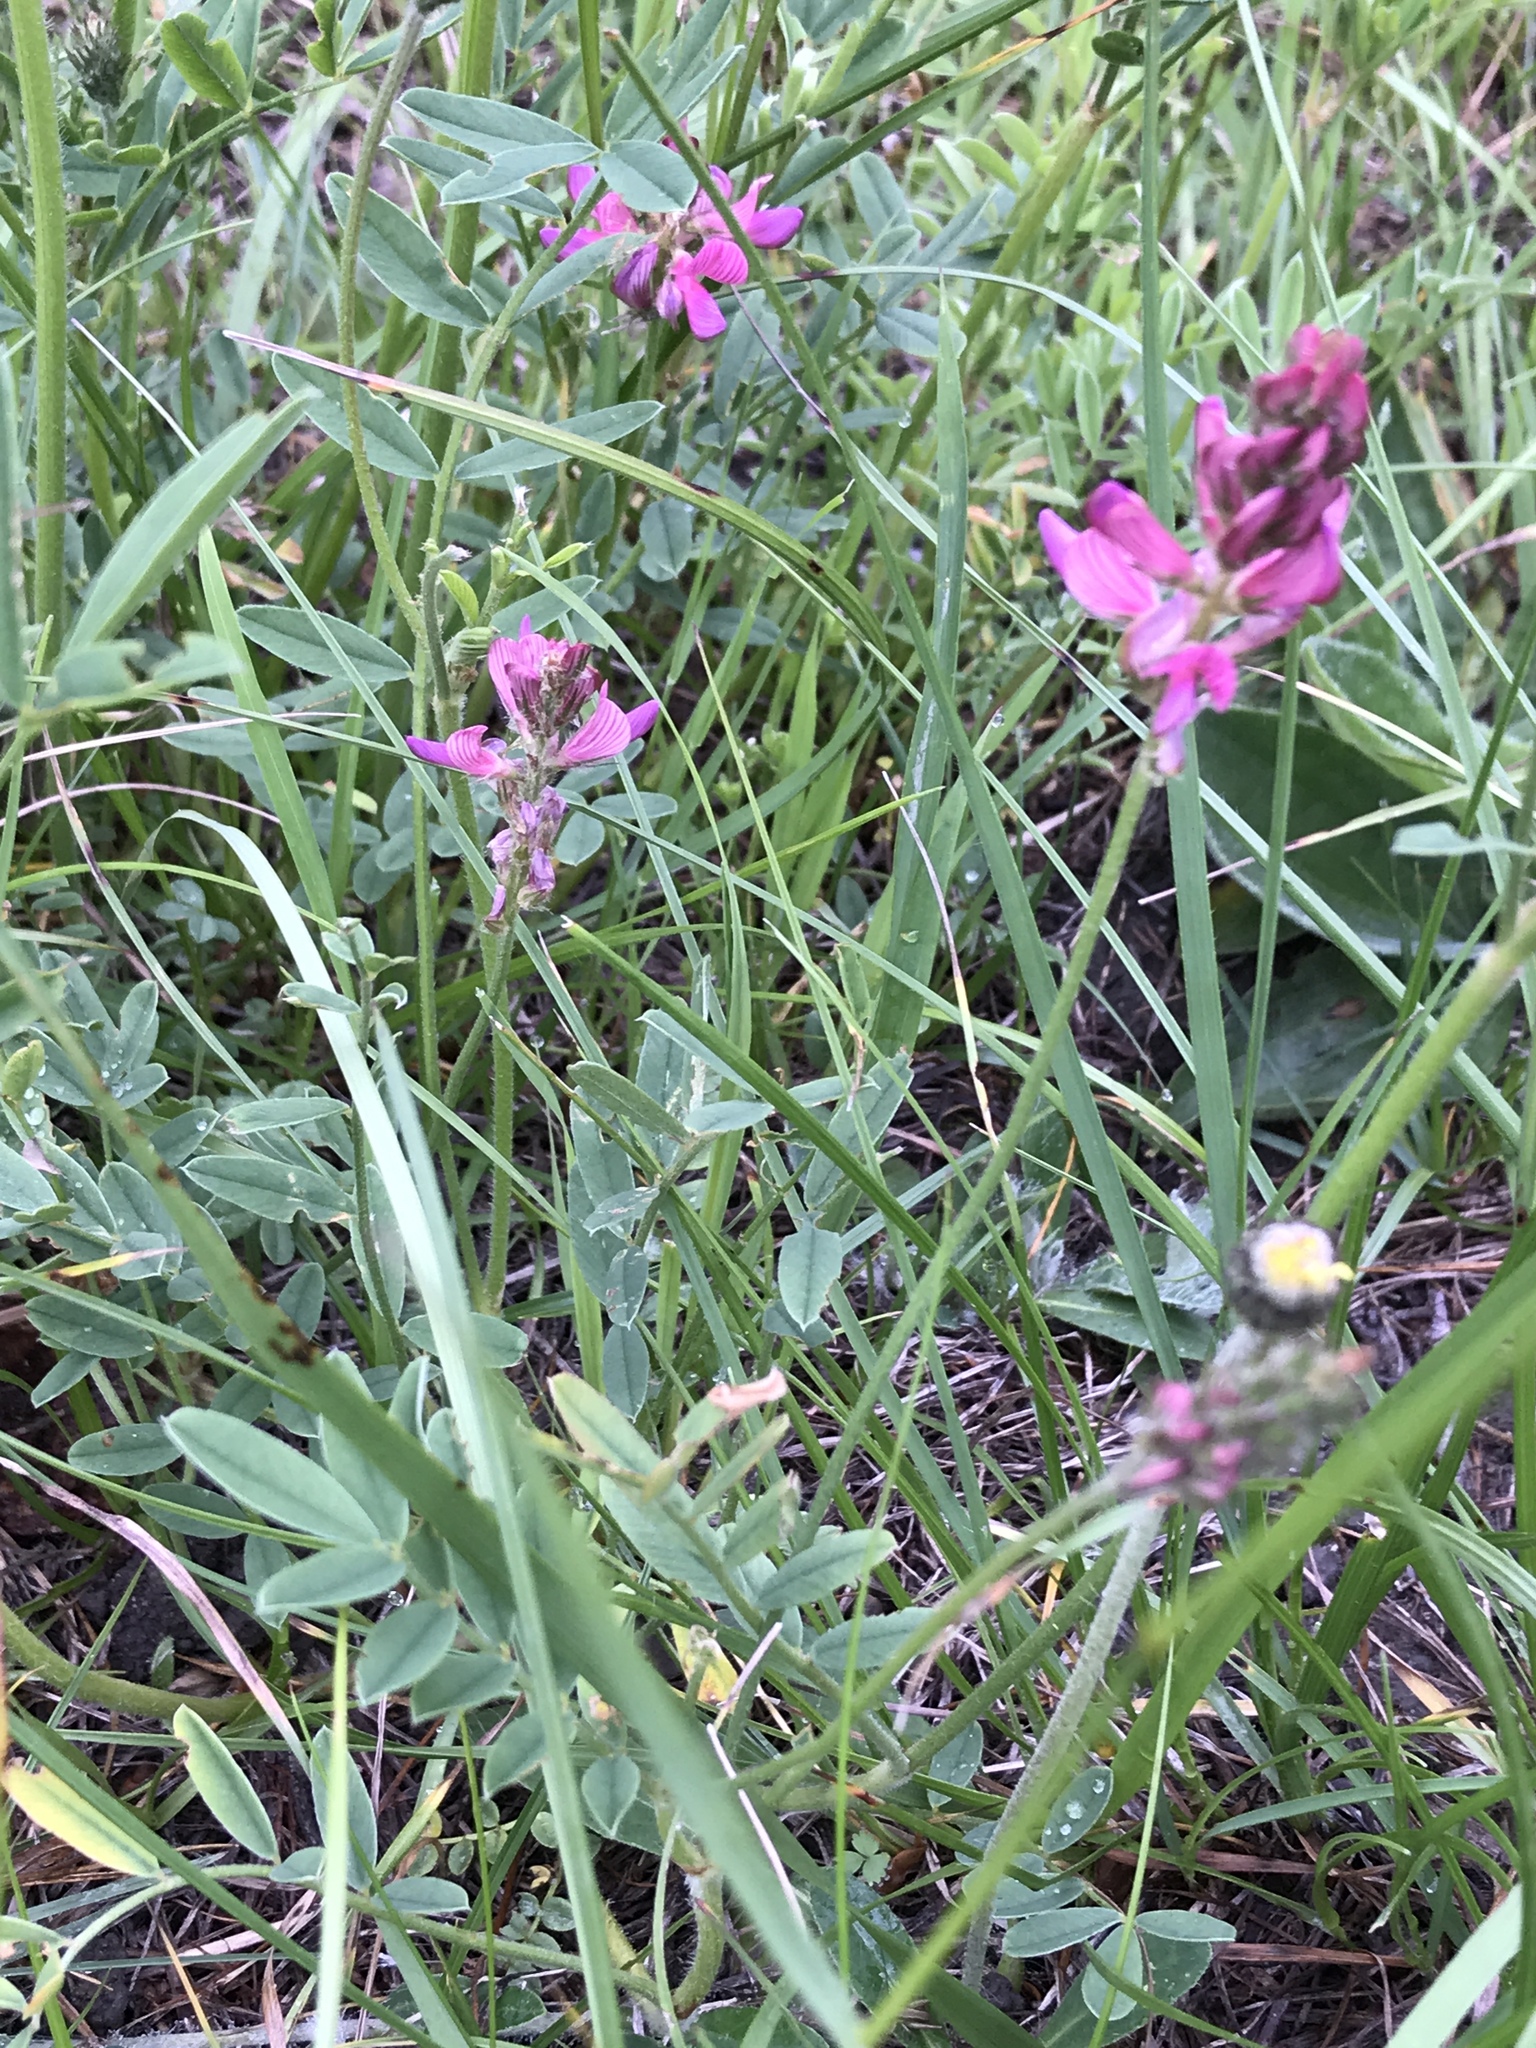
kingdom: Plantae
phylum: Tracheophyta
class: Magnoliopsida
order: Fabales
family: Fabaceae
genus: Onobrychis
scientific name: Onobrychis viciifolia
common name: Sainfoin
